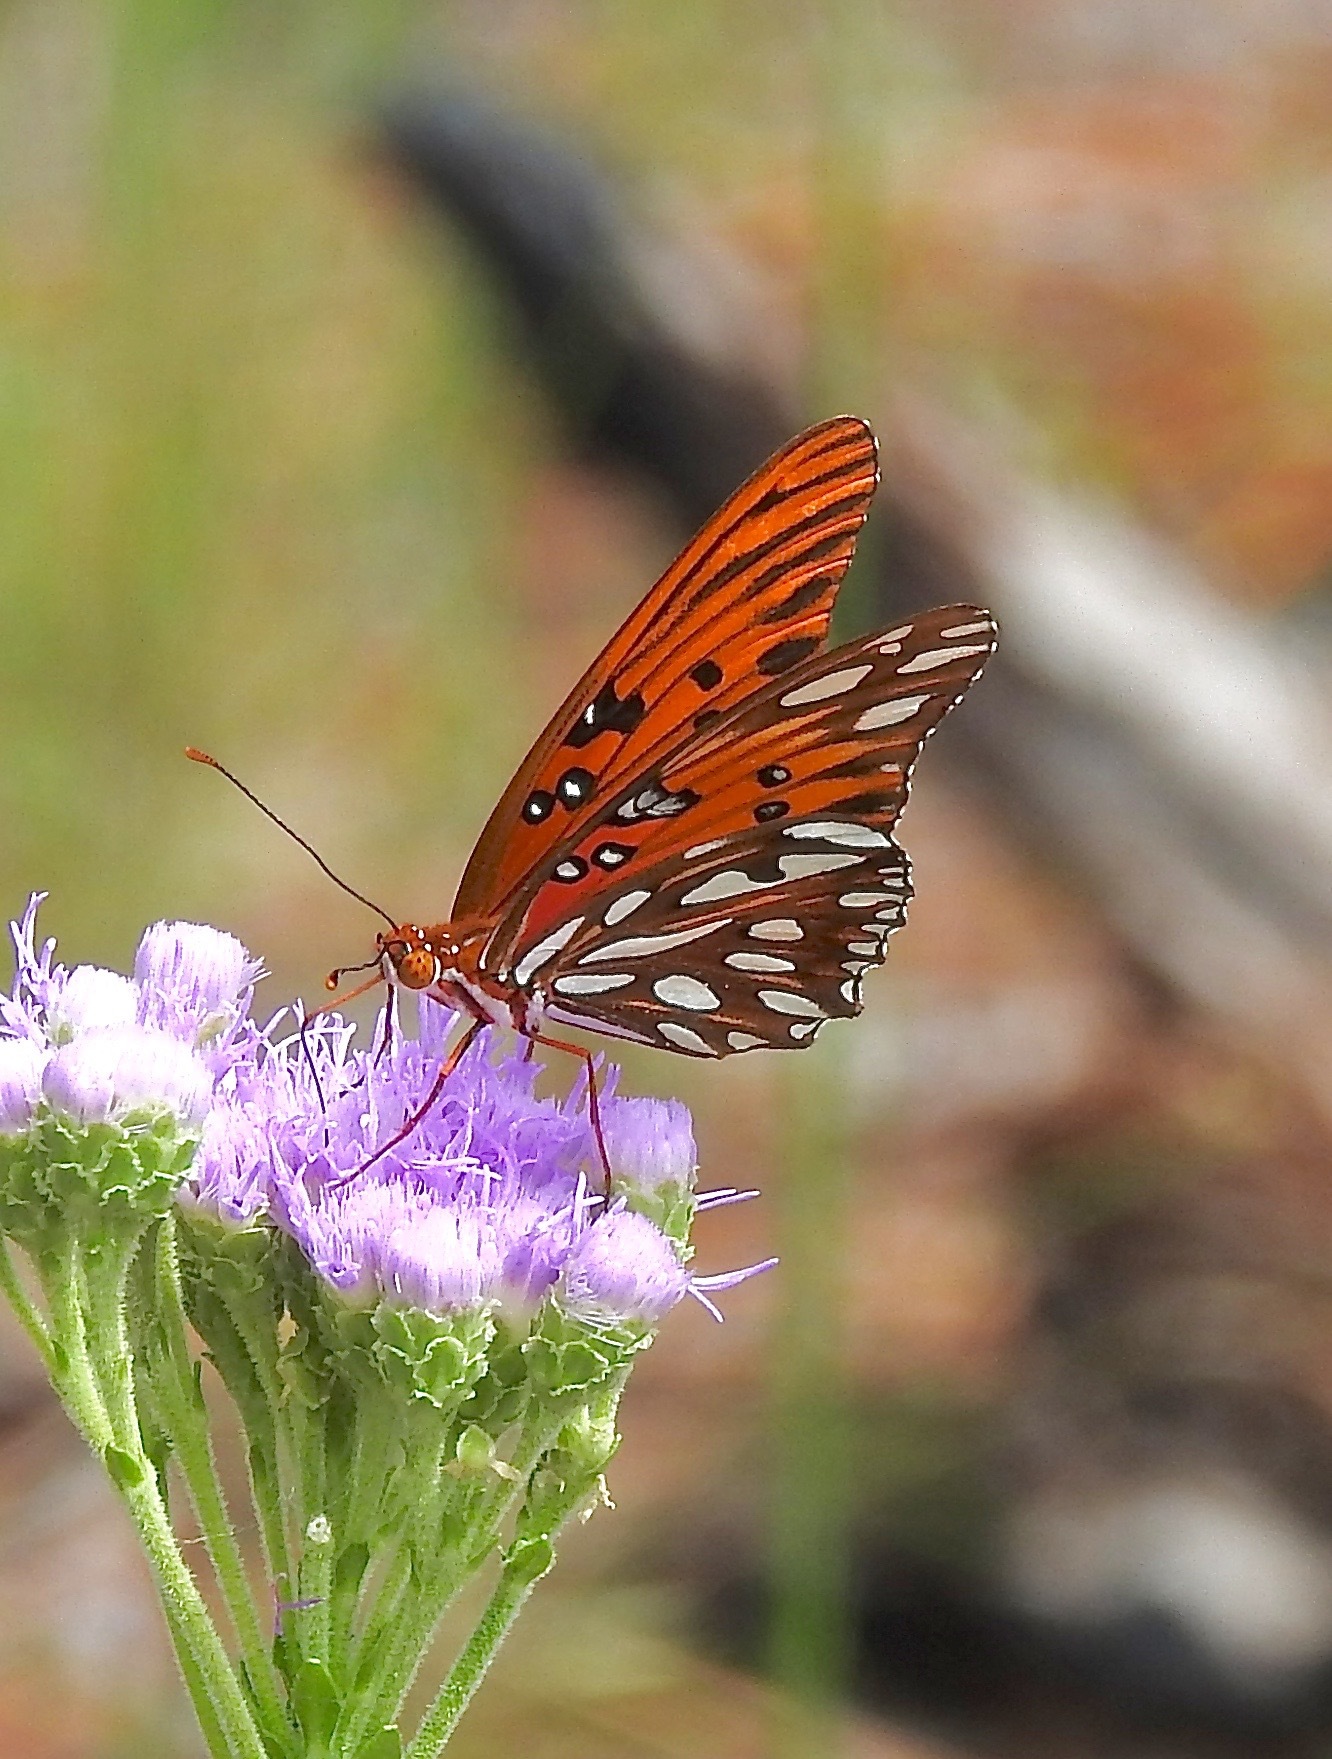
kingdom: Animalia
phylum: Arthropoda
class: Insecta
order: Lepidoptera
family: Nymphalidae
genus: Dione
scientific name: Dione vanillae
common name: Gulf fritillary
